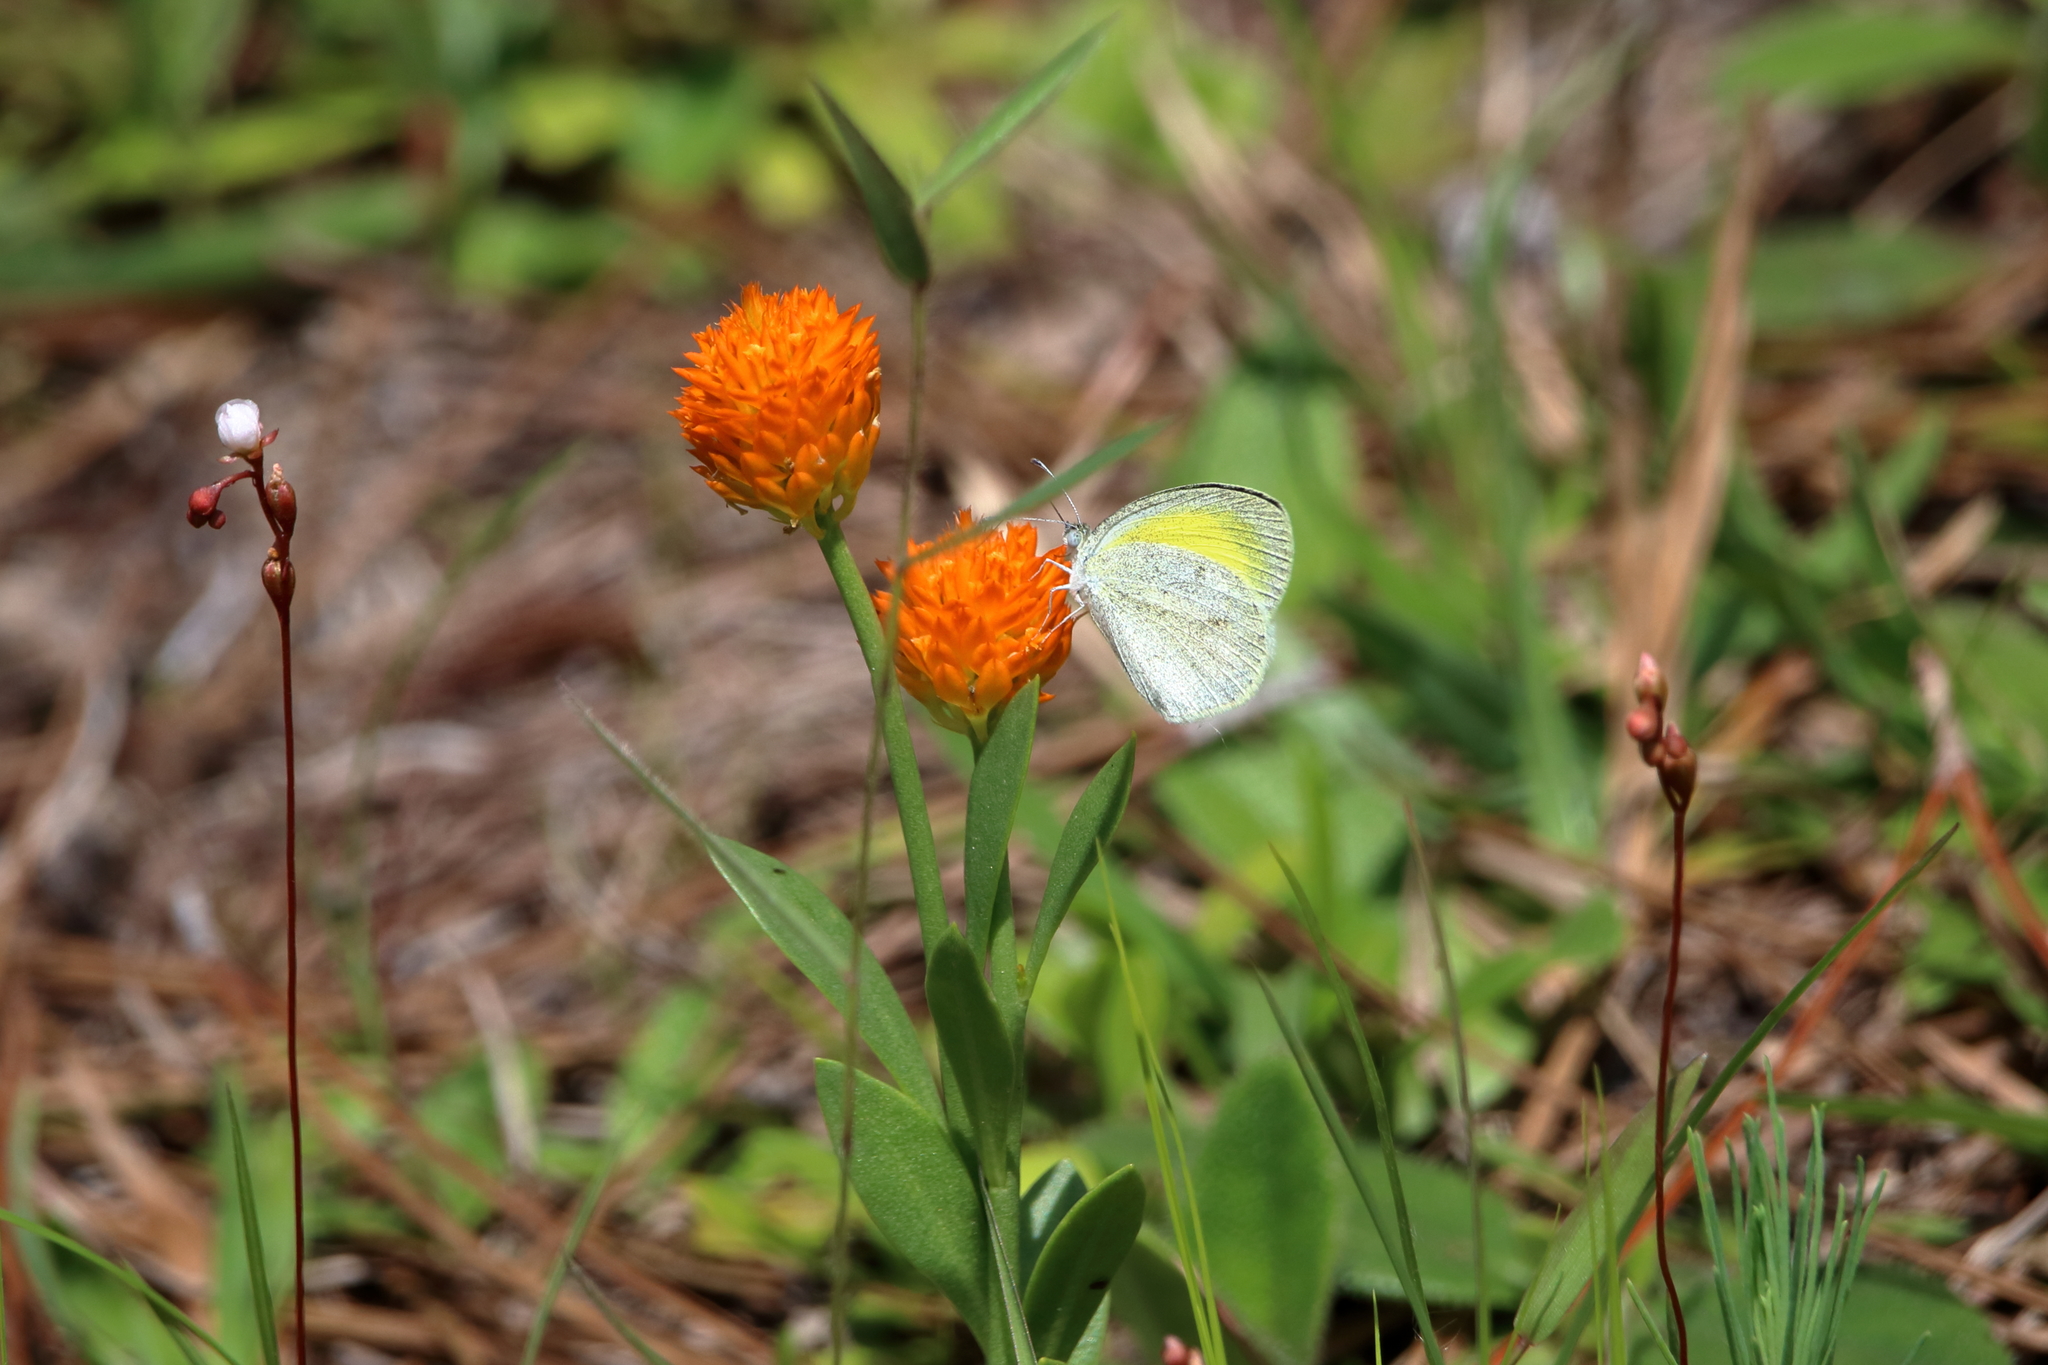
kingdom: Animalia
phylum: Arthropoda
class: Insecta
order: Lepidoptera
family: Pieridae
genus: Eurema
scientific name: Eurema daira
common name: Barred sulphur
